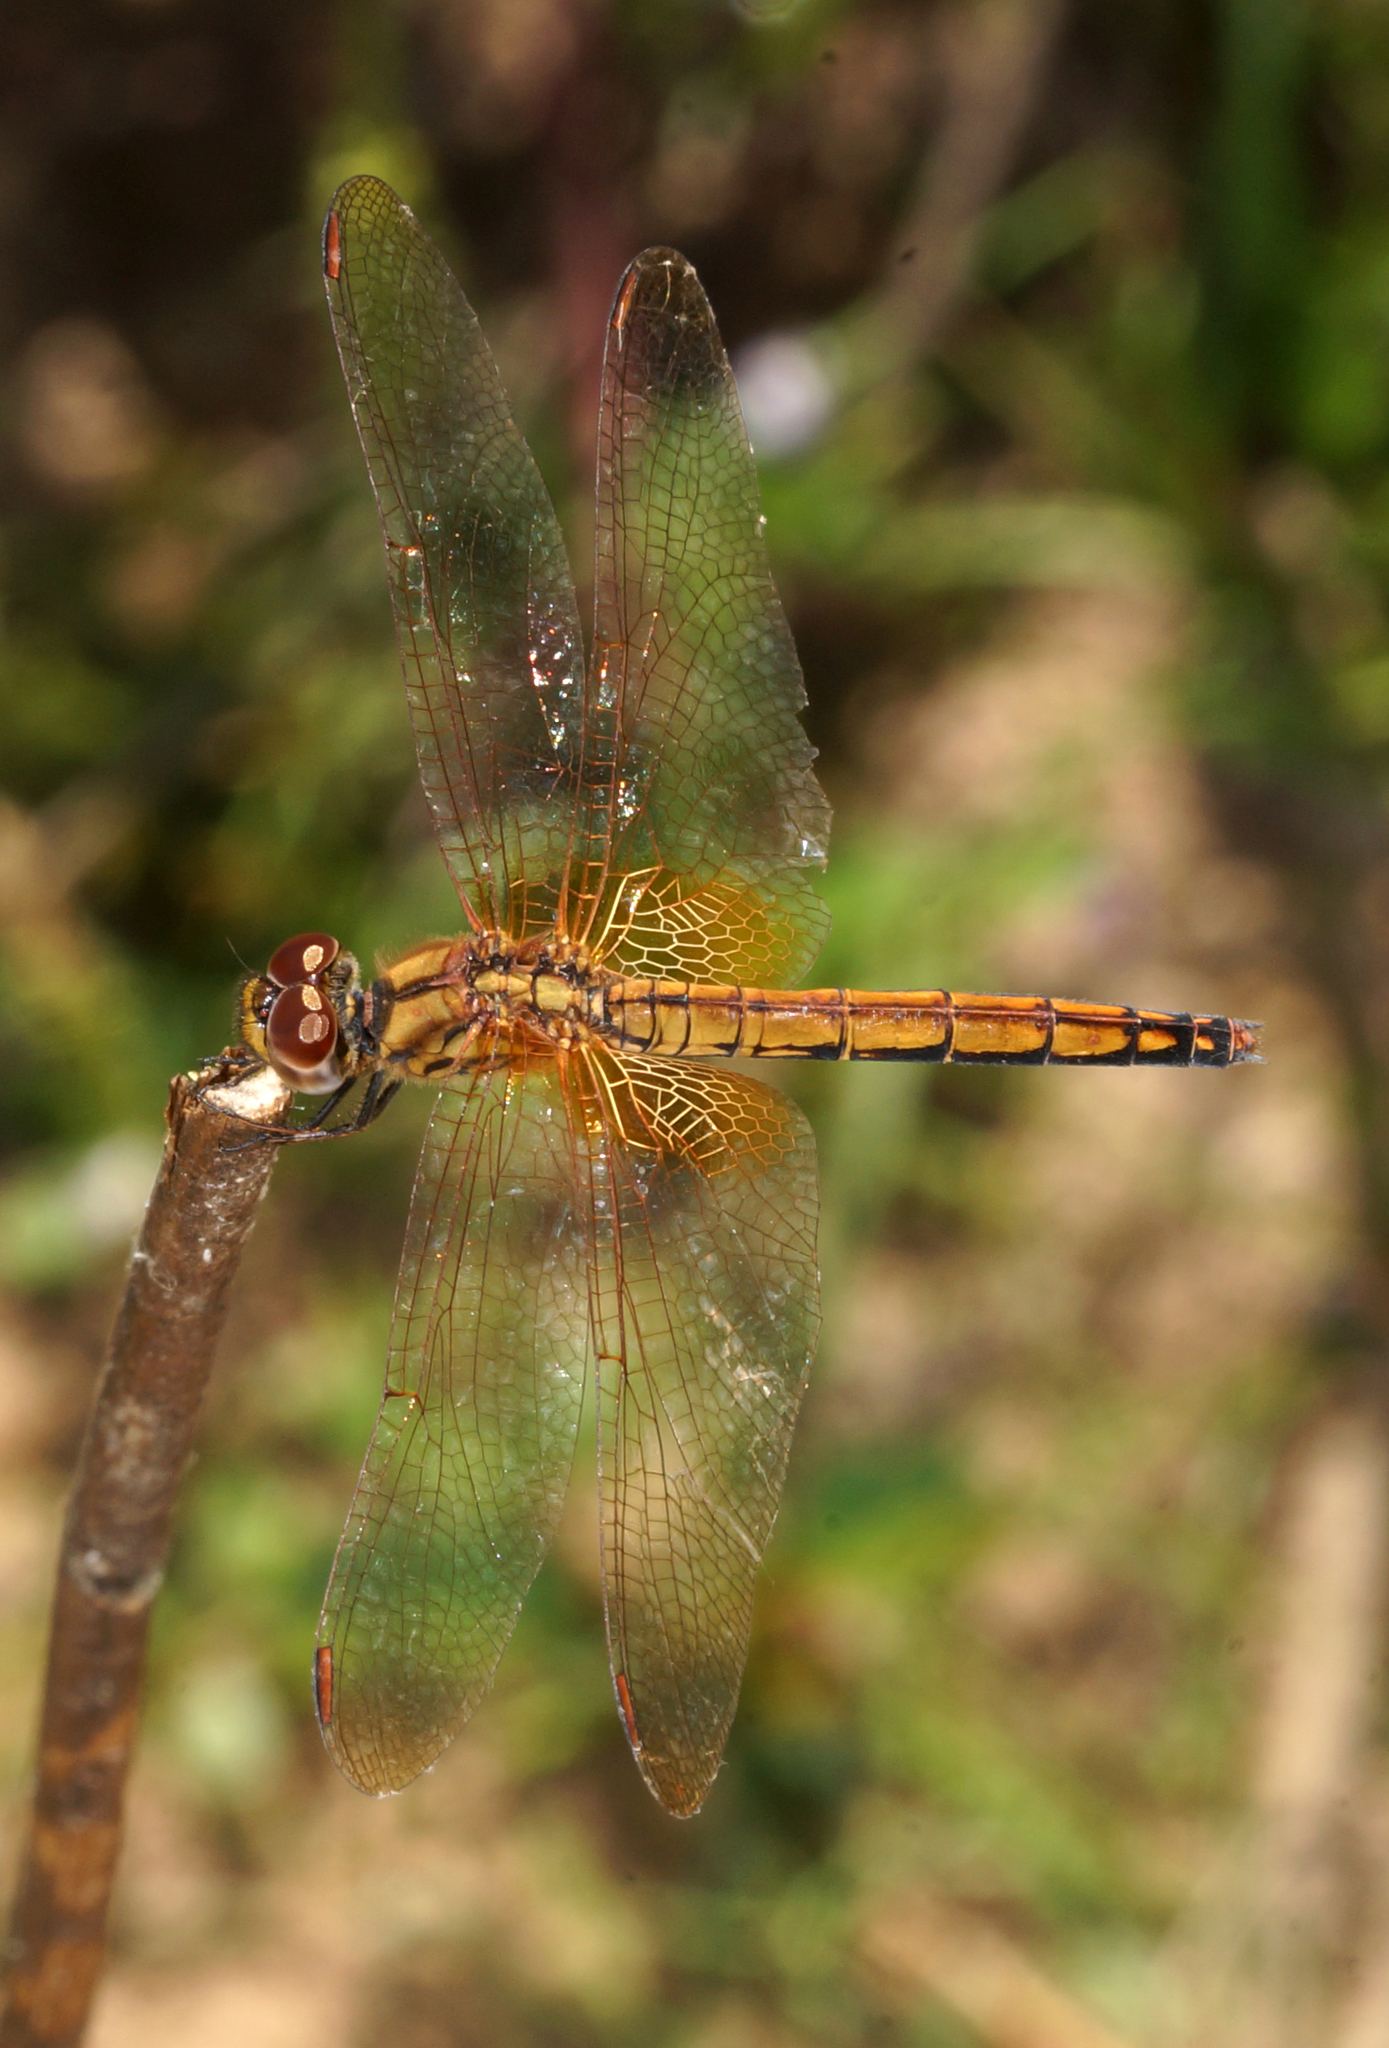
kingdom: Animalia
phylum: Arthropoda
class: Insecta
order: Odonata
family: Libellulidae
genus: Trithemis
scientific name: Trithemis aurora
